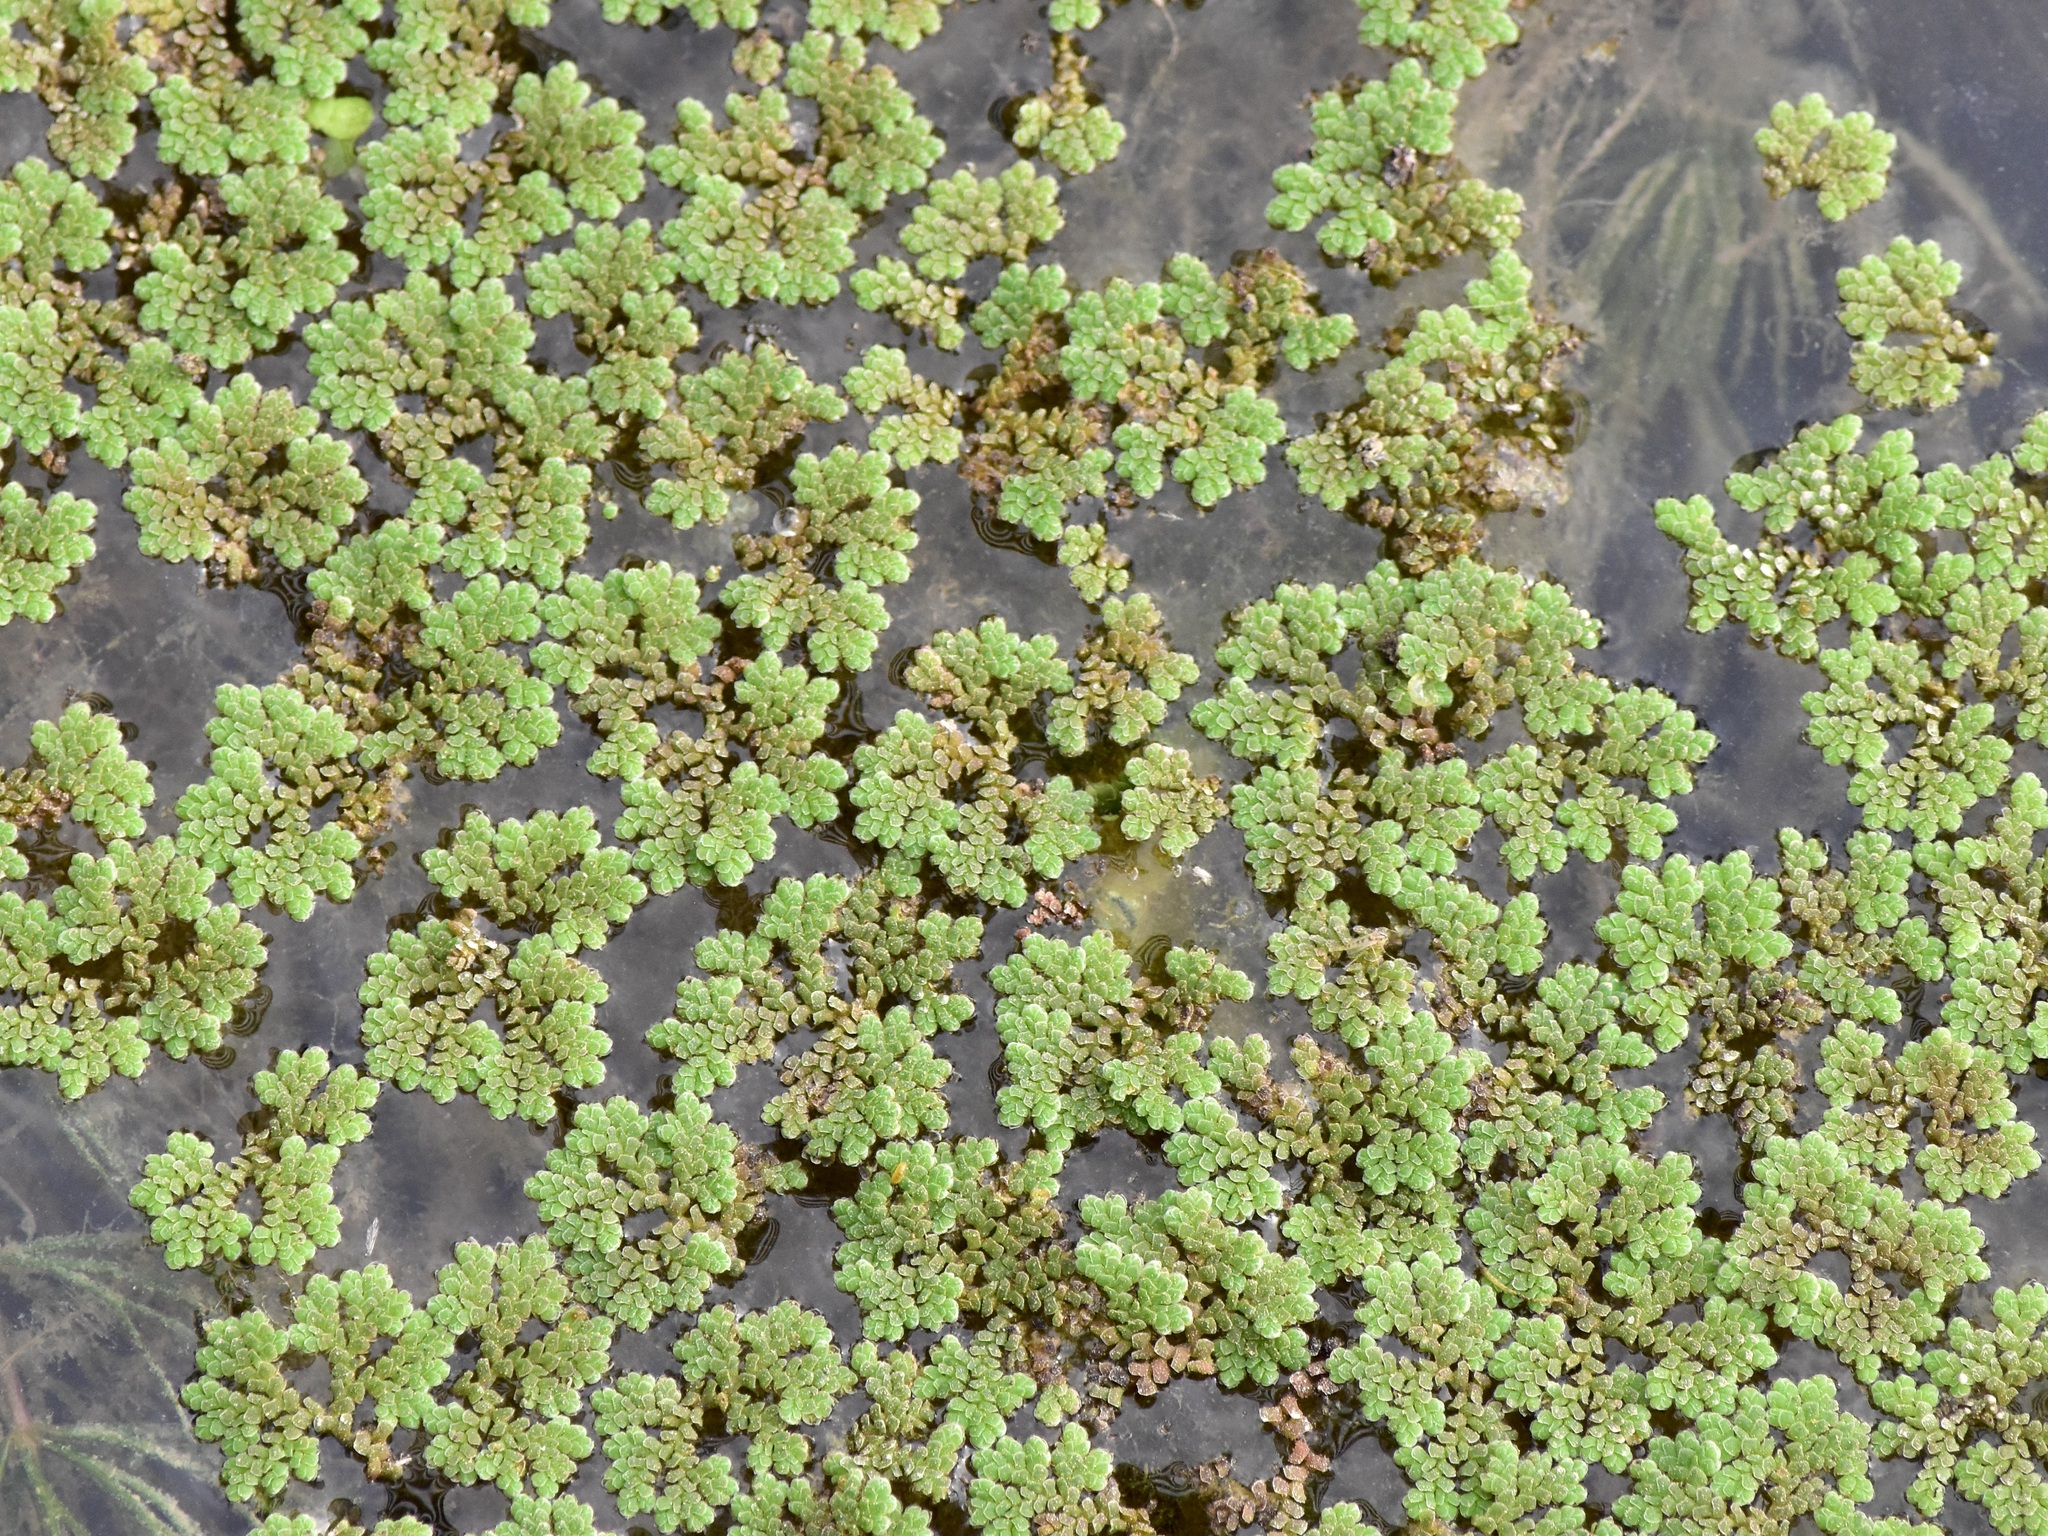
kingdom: Plantae
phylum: Tracheophyta
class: Polypodiopsida
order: Salviniales
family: Salviniaceae
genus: Azolla
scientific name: Azolla filiculoides
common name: Water fern
